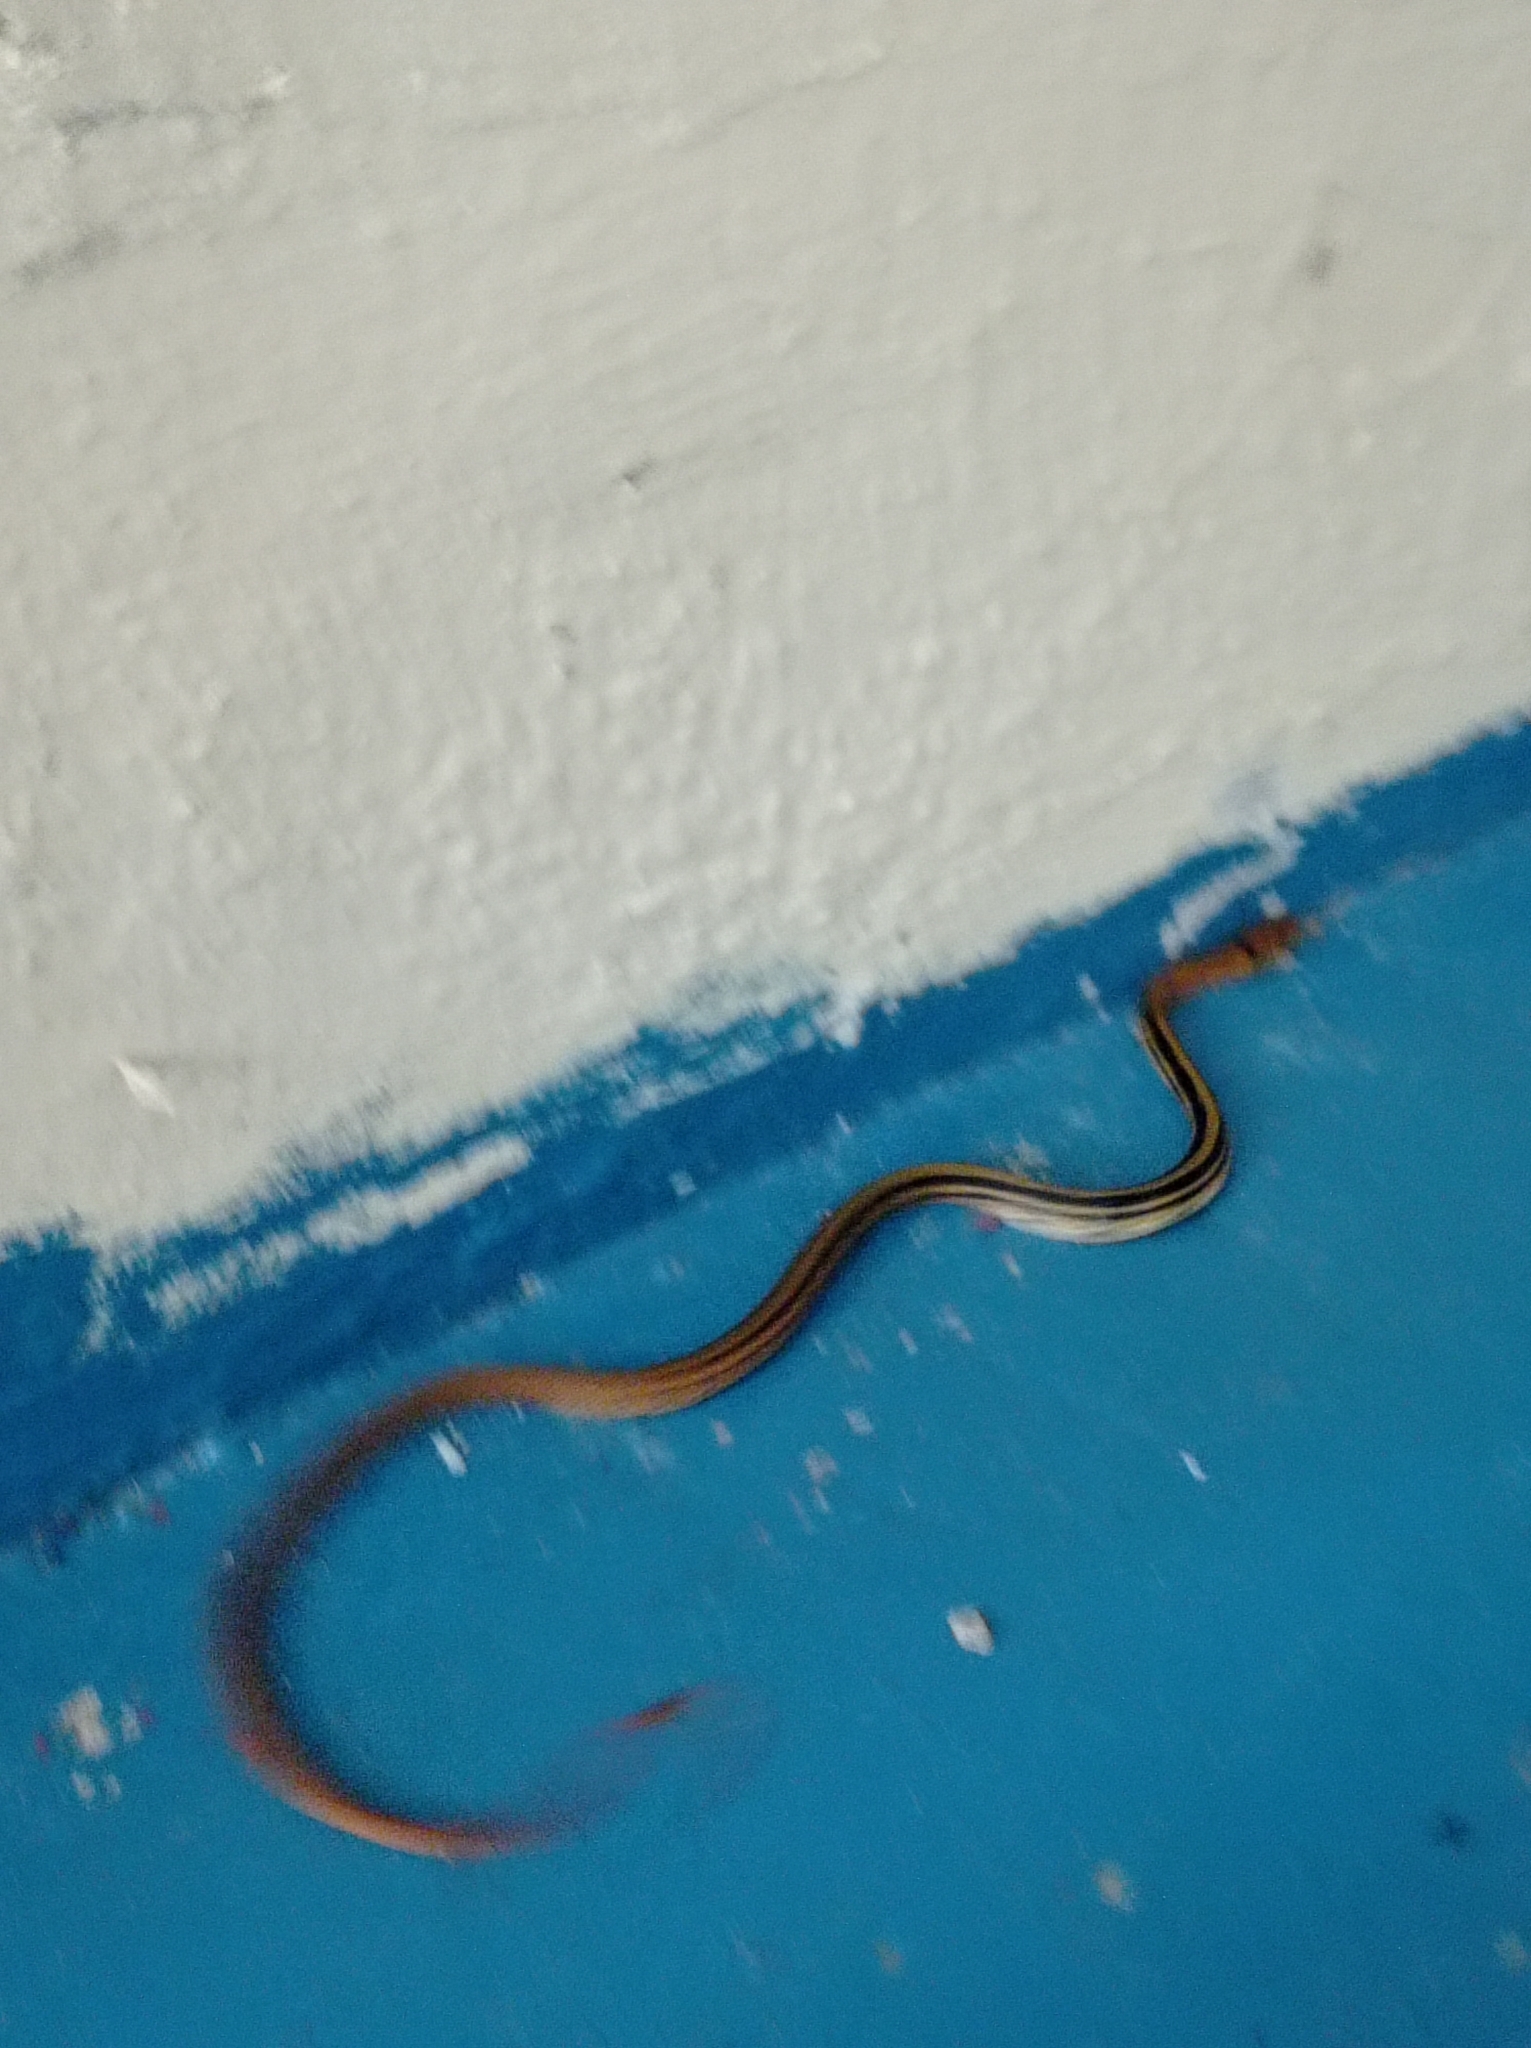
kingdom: Animalia
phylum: Chordata
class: Squamata
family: Colubridae
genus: Coelognathus
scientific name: Coelognathus radiatus
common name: Copperhead rat snake
